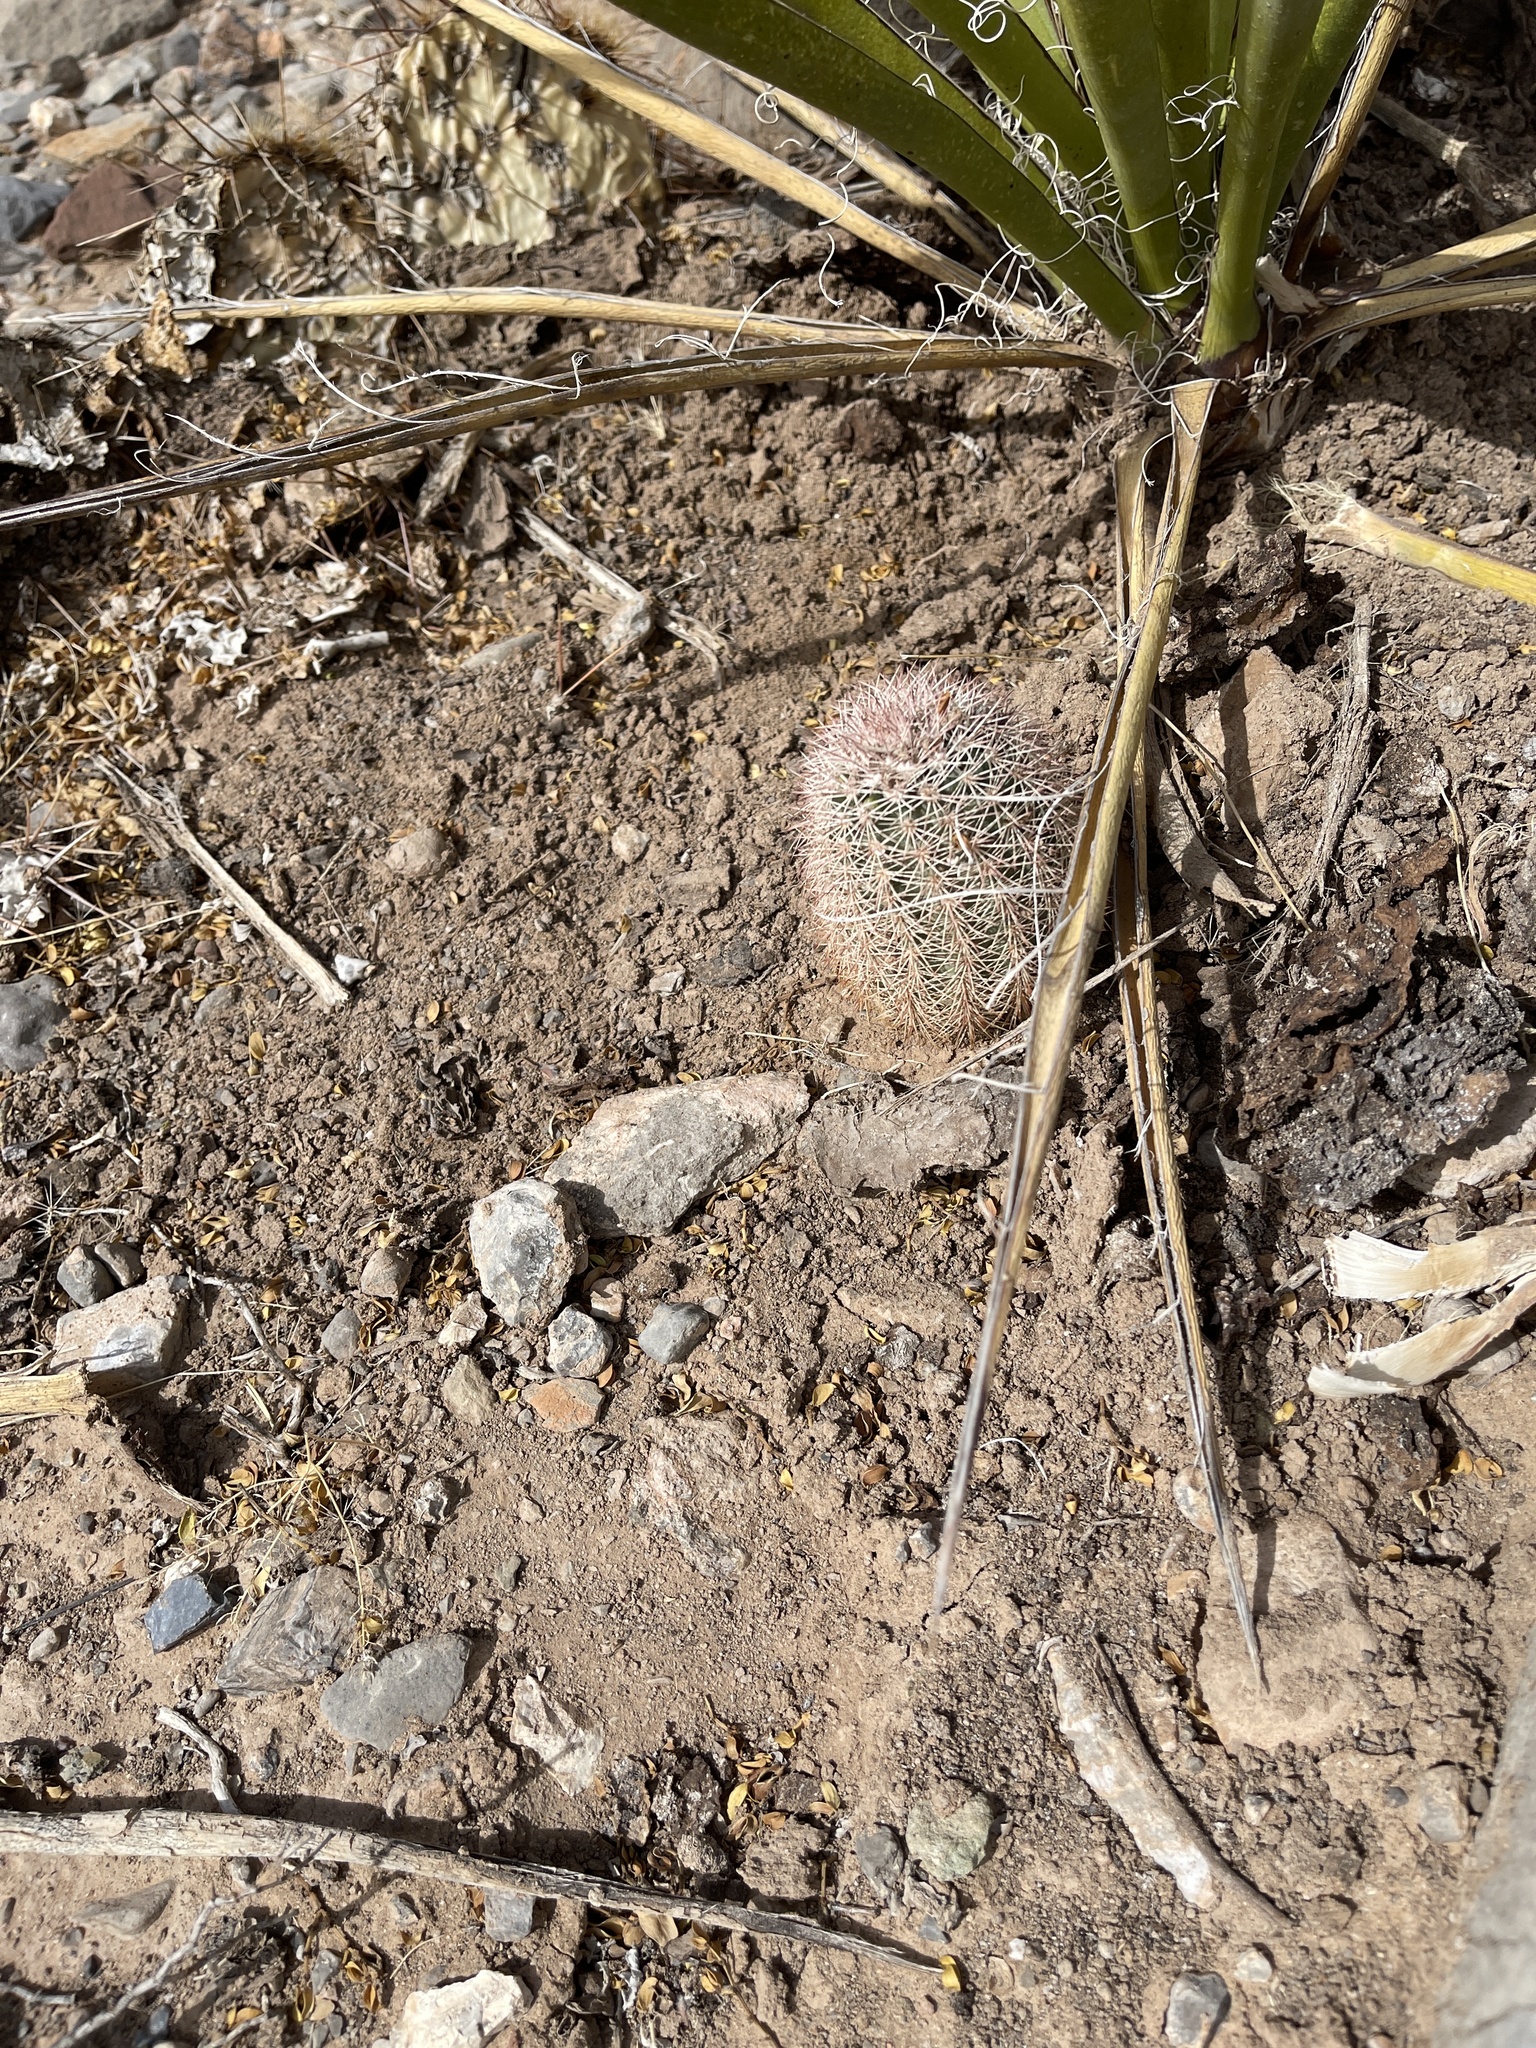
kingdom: Plantae
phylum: Tracheophyta
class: Magnoliopsida
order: Caryophyllales
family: Cactaceae
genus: Echinocereus
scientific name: Echinocereus dasyacanthus
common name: Spiny hedgehog cactus
